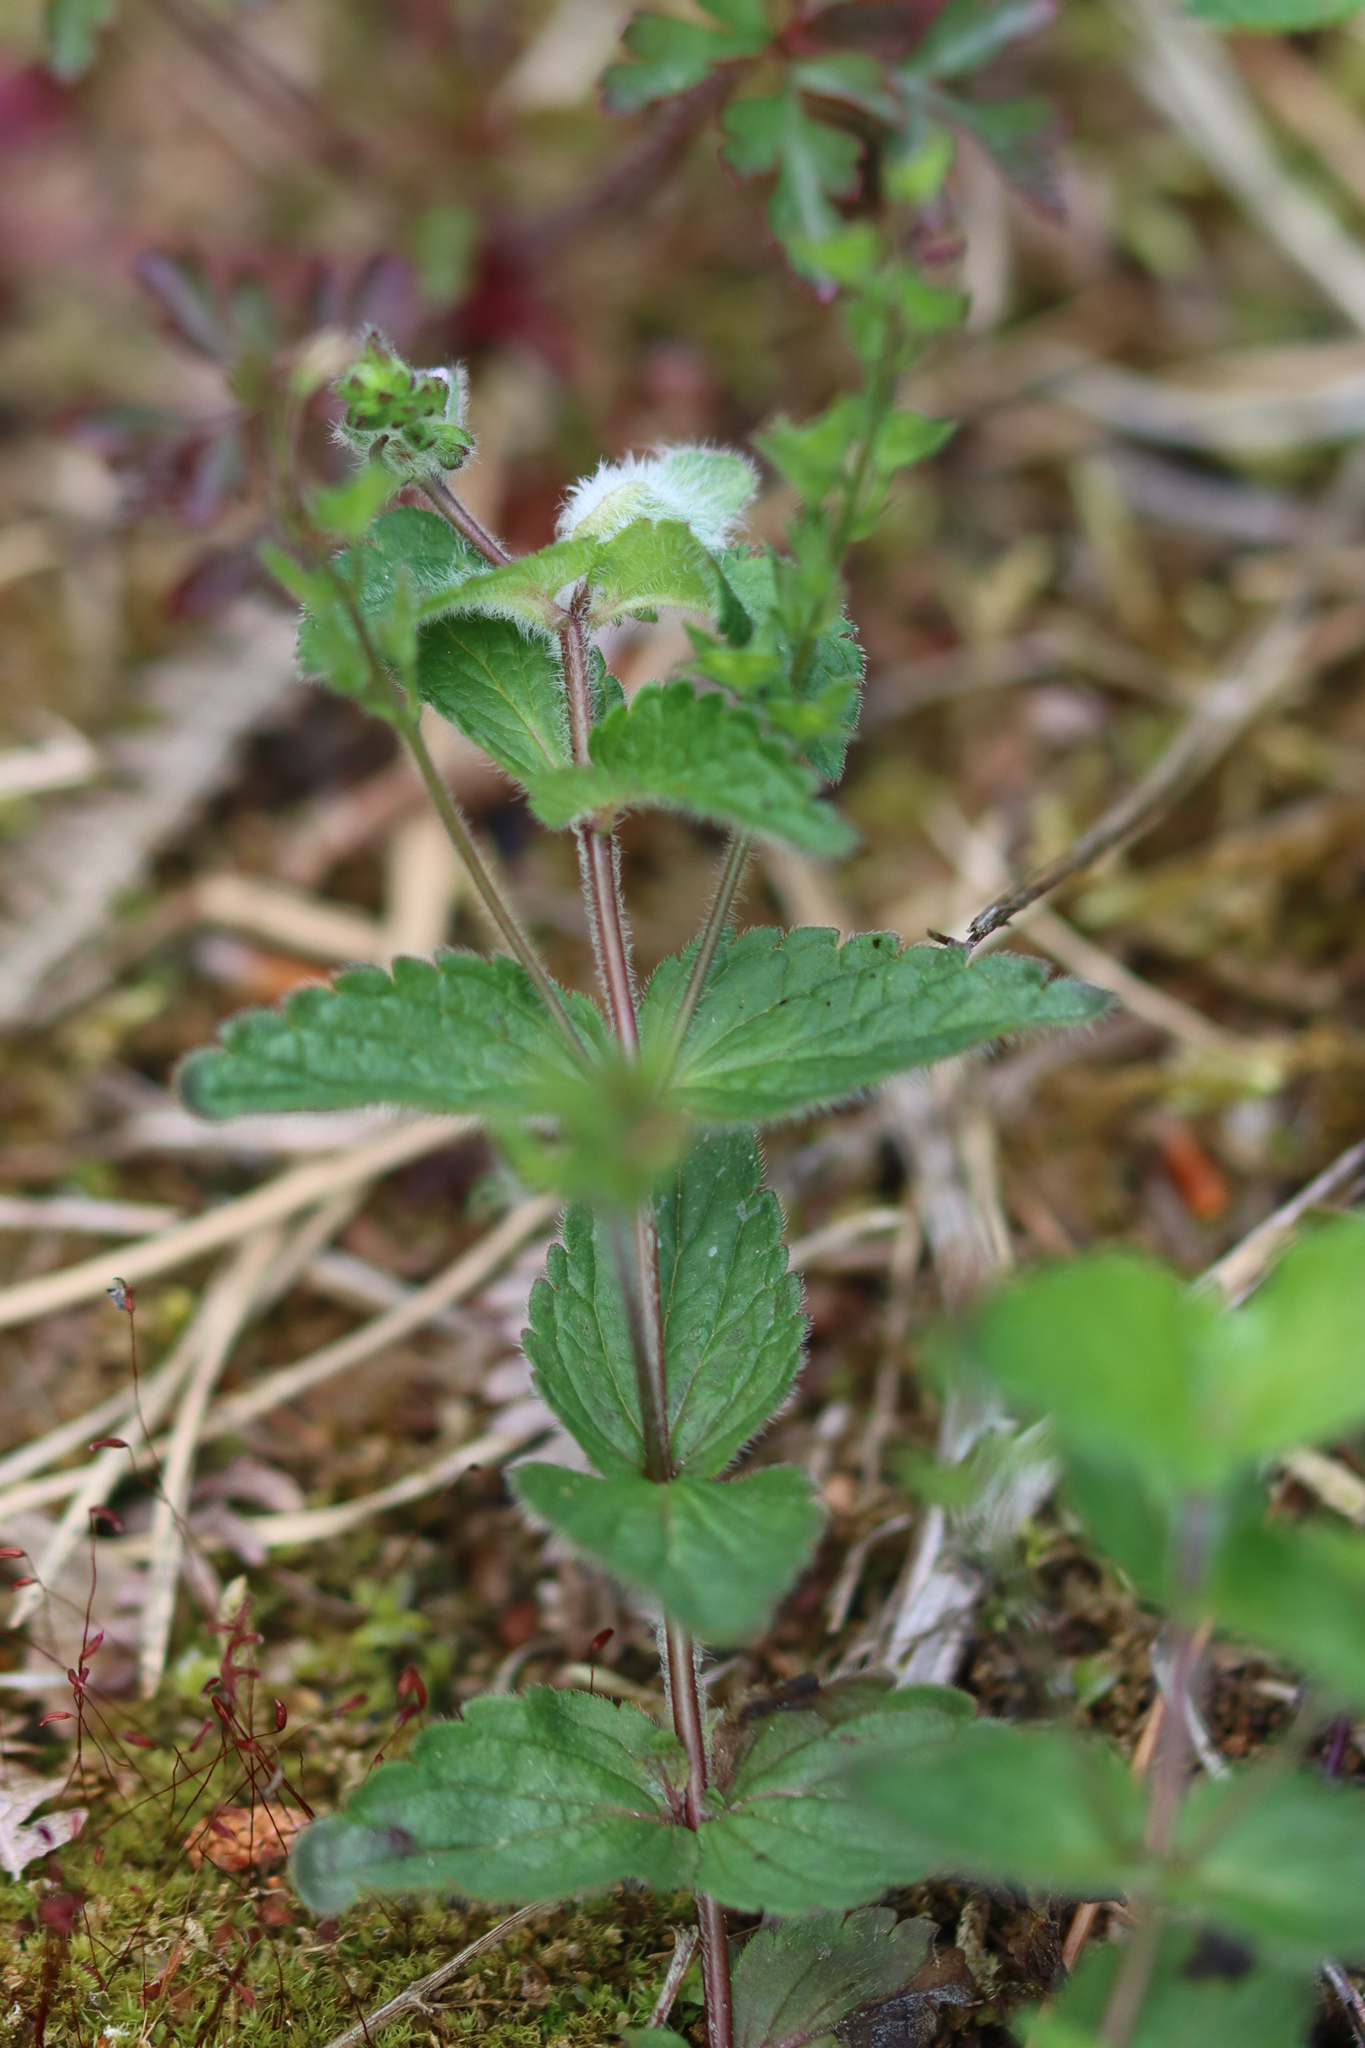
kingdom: Plantae
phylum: Tracheophyta
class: Magnoliopsida
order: Lamiales
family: Plantaginaceae
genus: Veronica
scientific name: Veronica chamaedrys
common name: Germander speedwell
